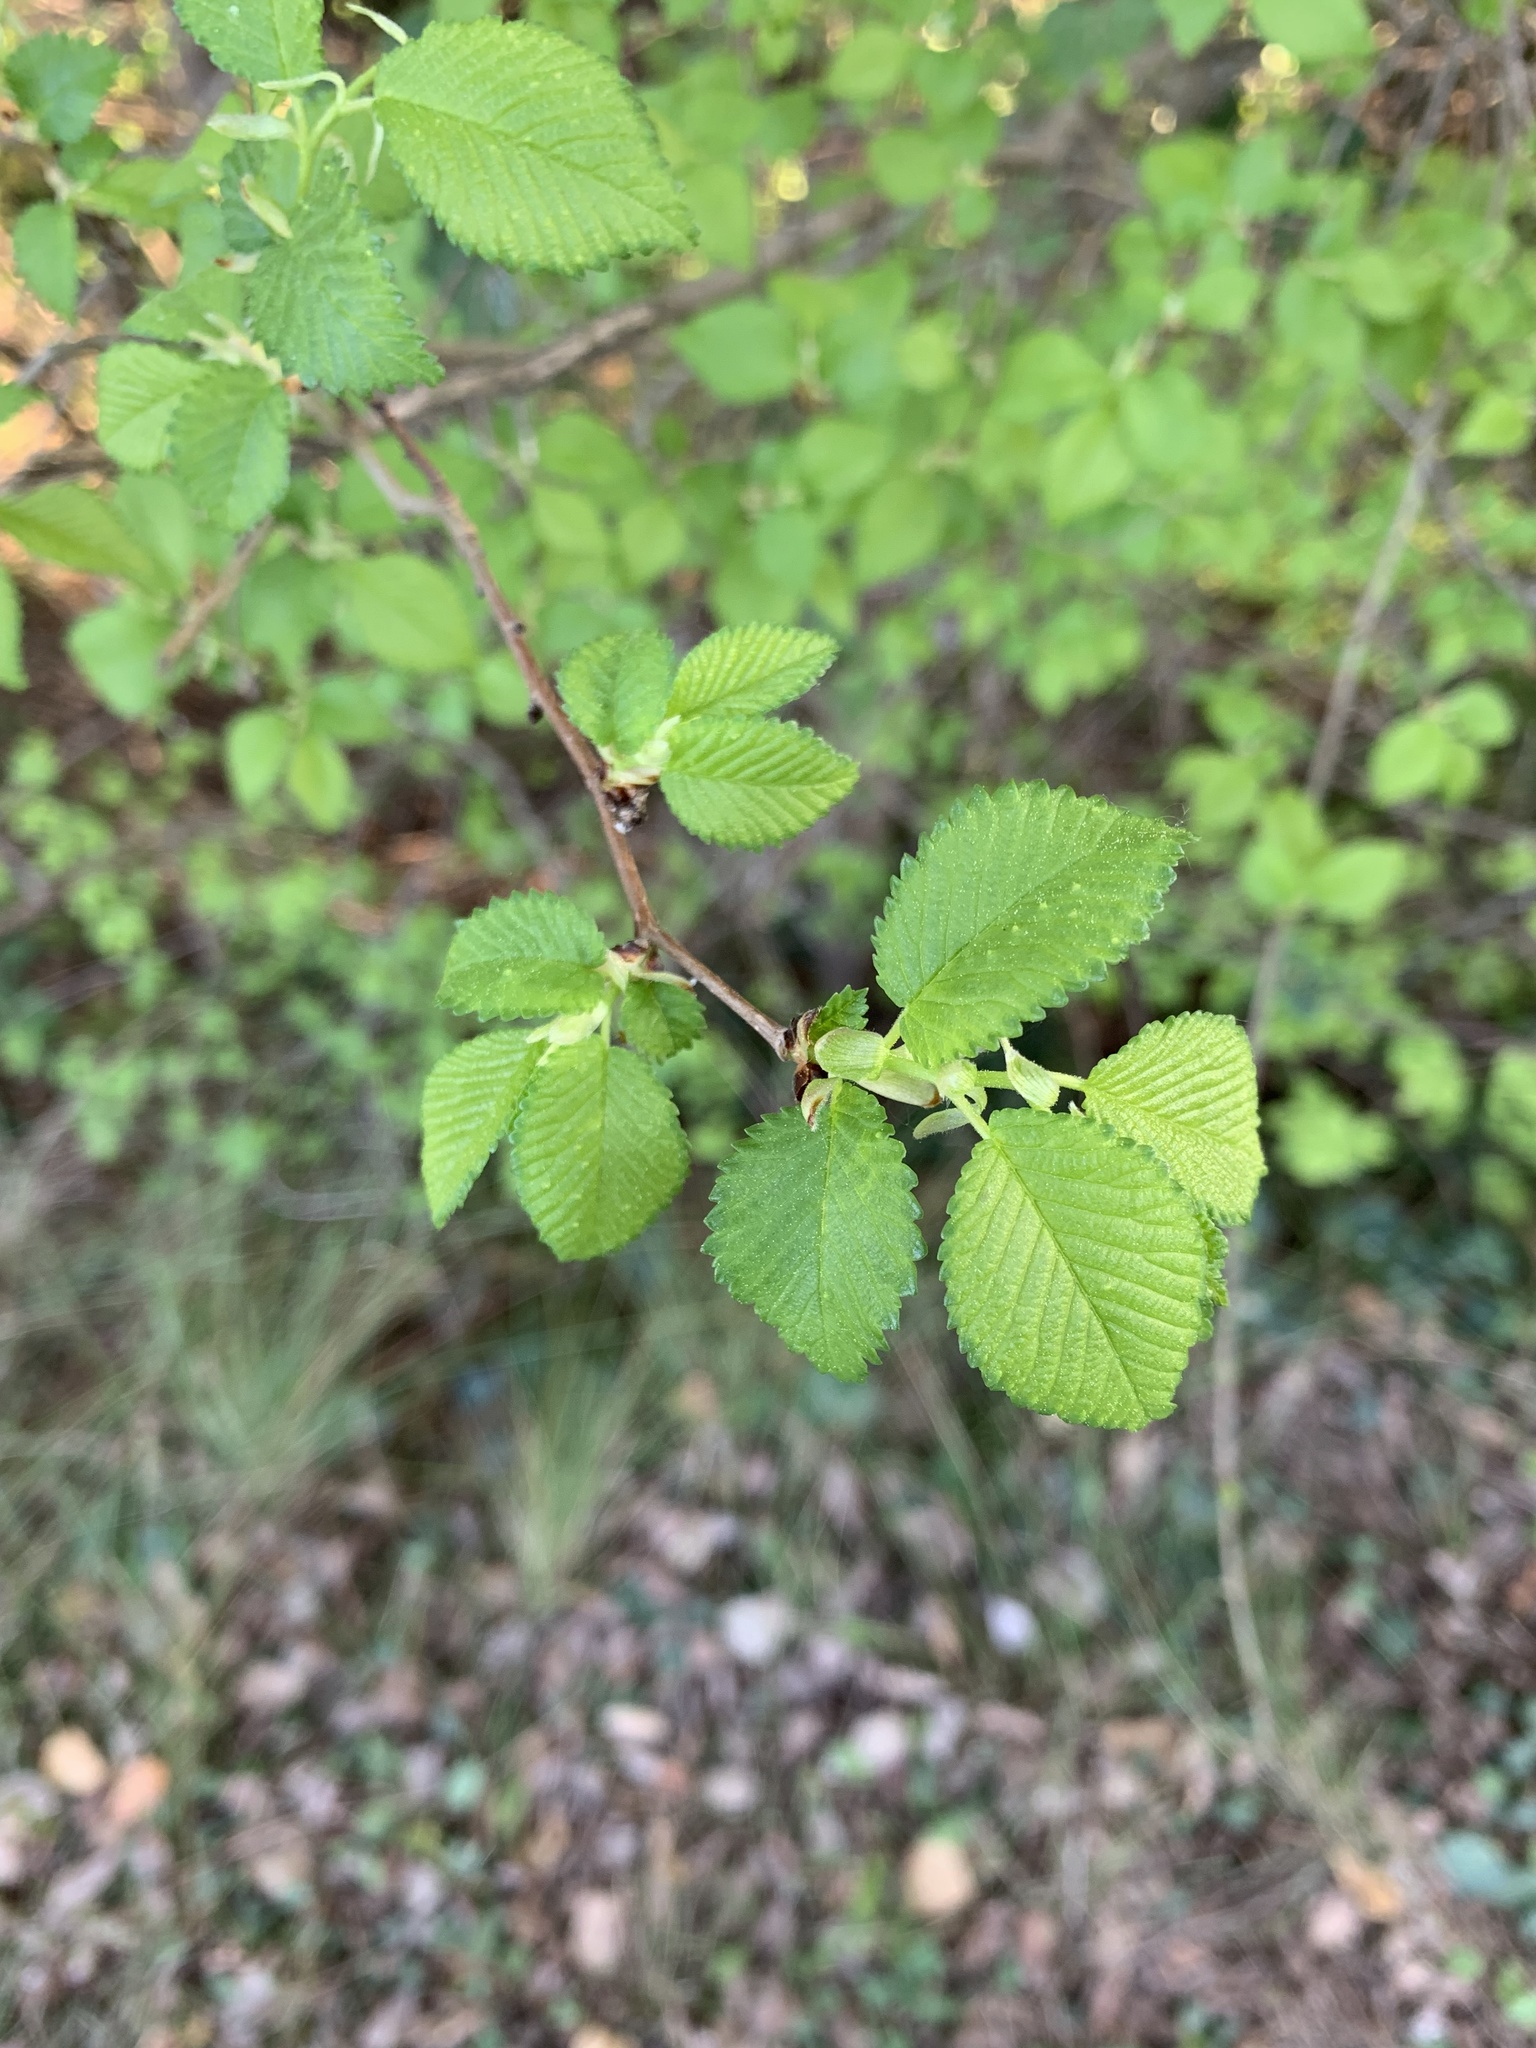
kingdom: Plantae
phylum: Tracheophyta
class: Magnoliopsida
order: Rosales
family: Ulmaceae
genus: Ulmus
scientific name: Ulmus minor
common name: Small-leaved elm
